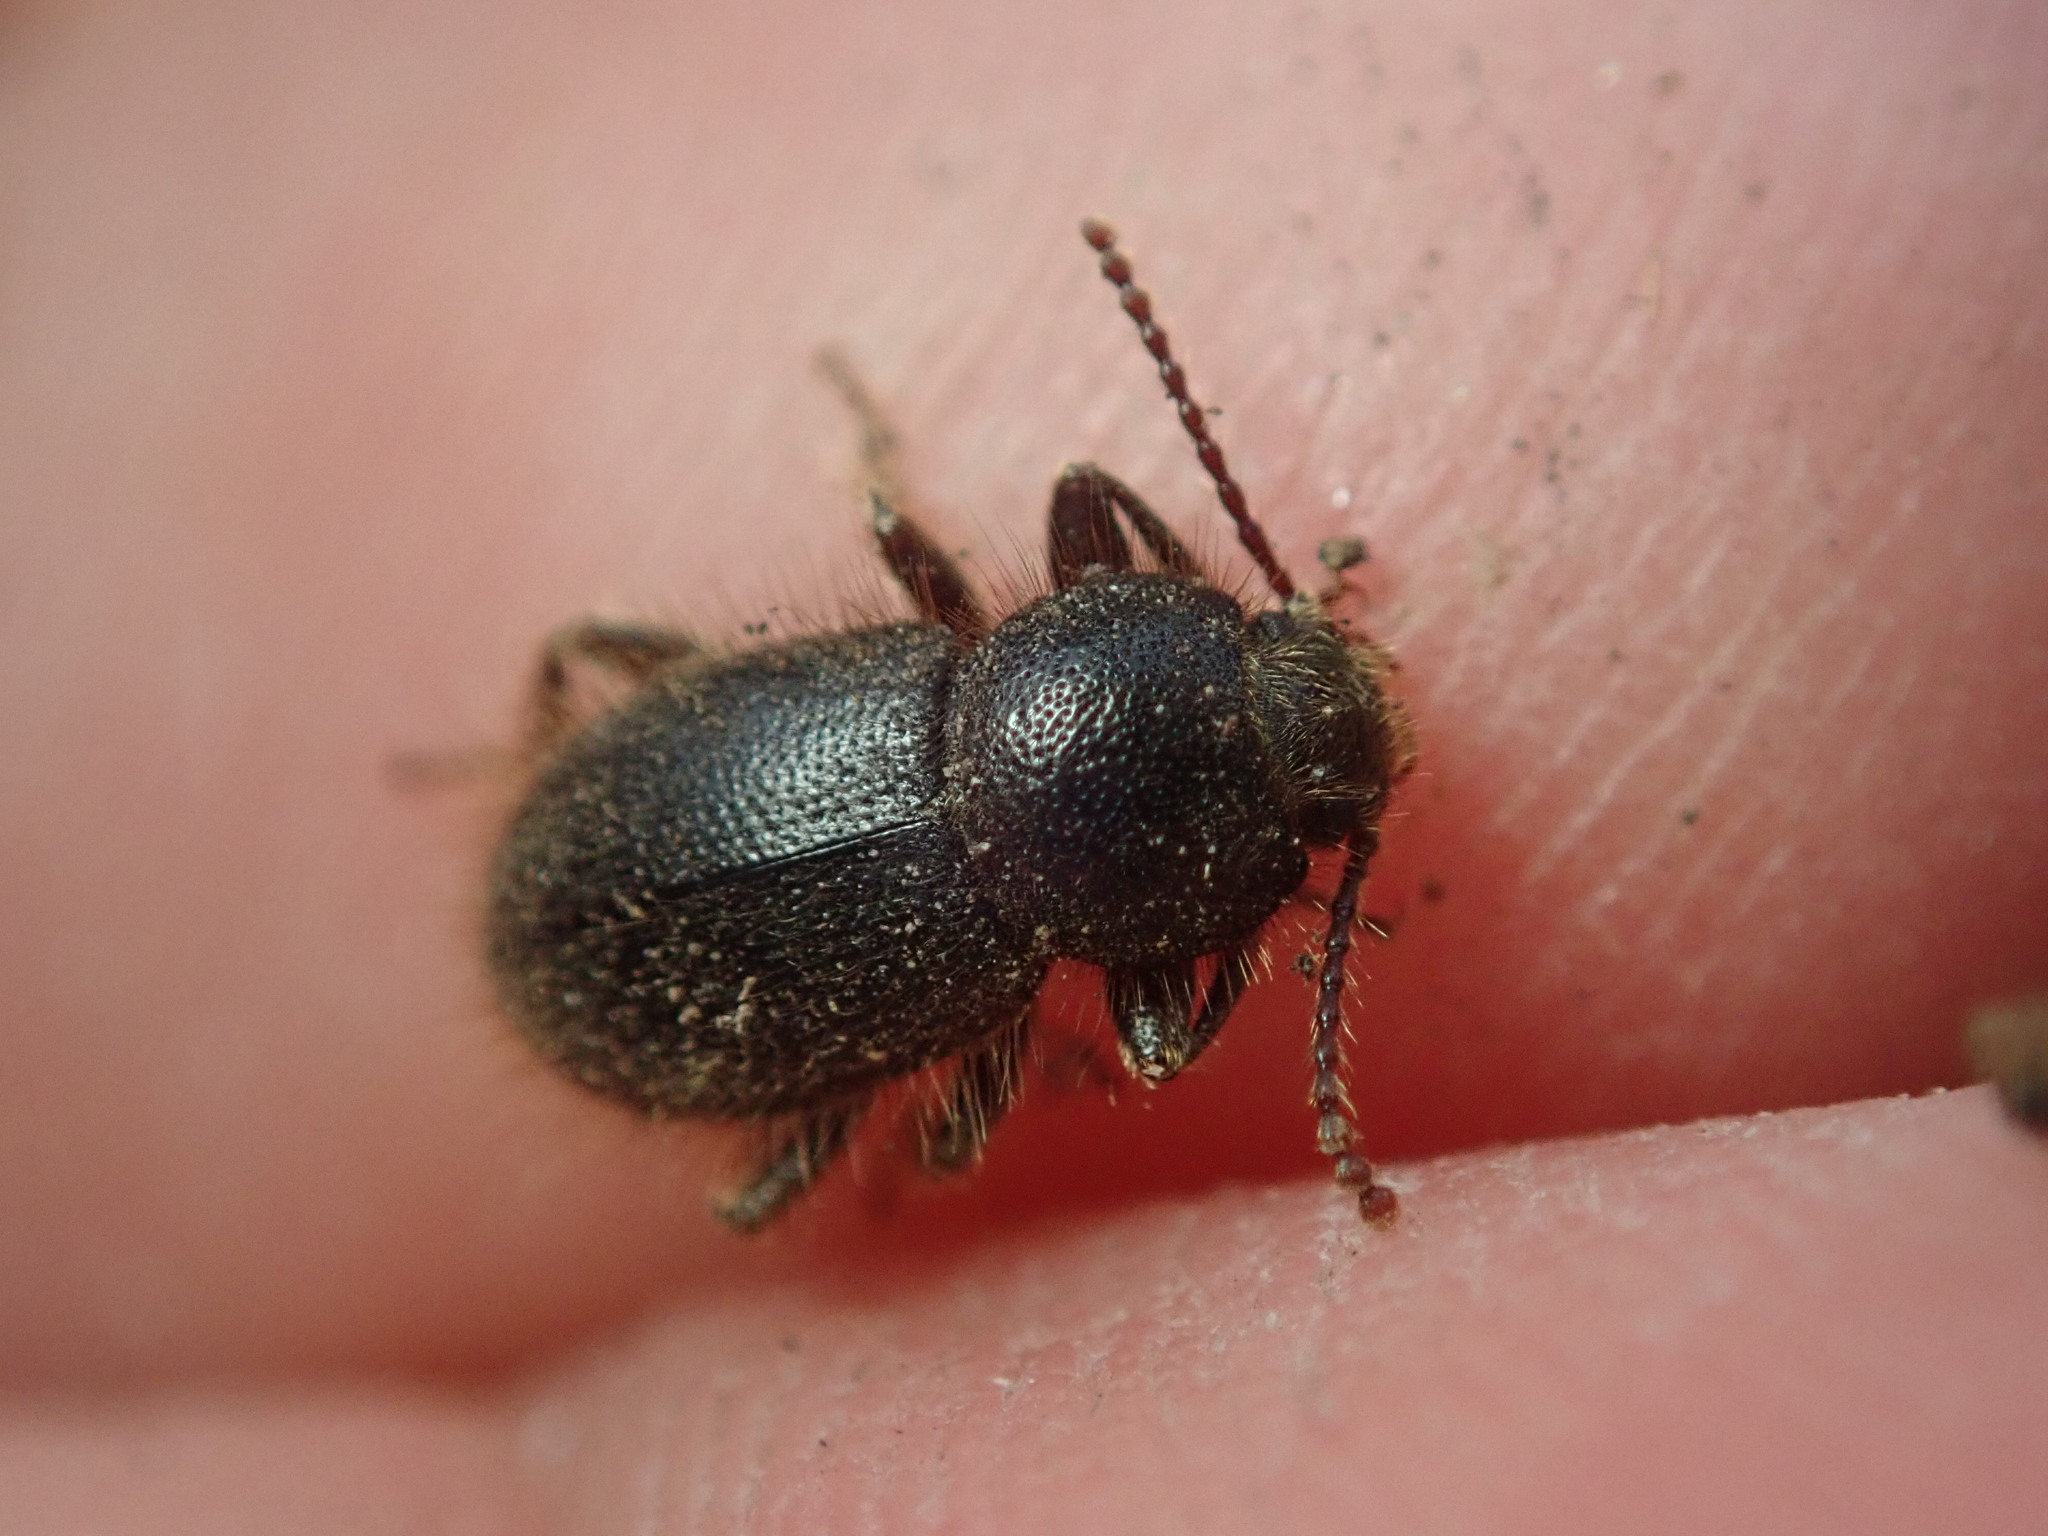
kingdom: Animalia
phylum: Arthropoda
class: Insecta
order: Coleoptera
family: Tenebrionidae
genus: Eleodes
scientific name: Eleodes littoralis
